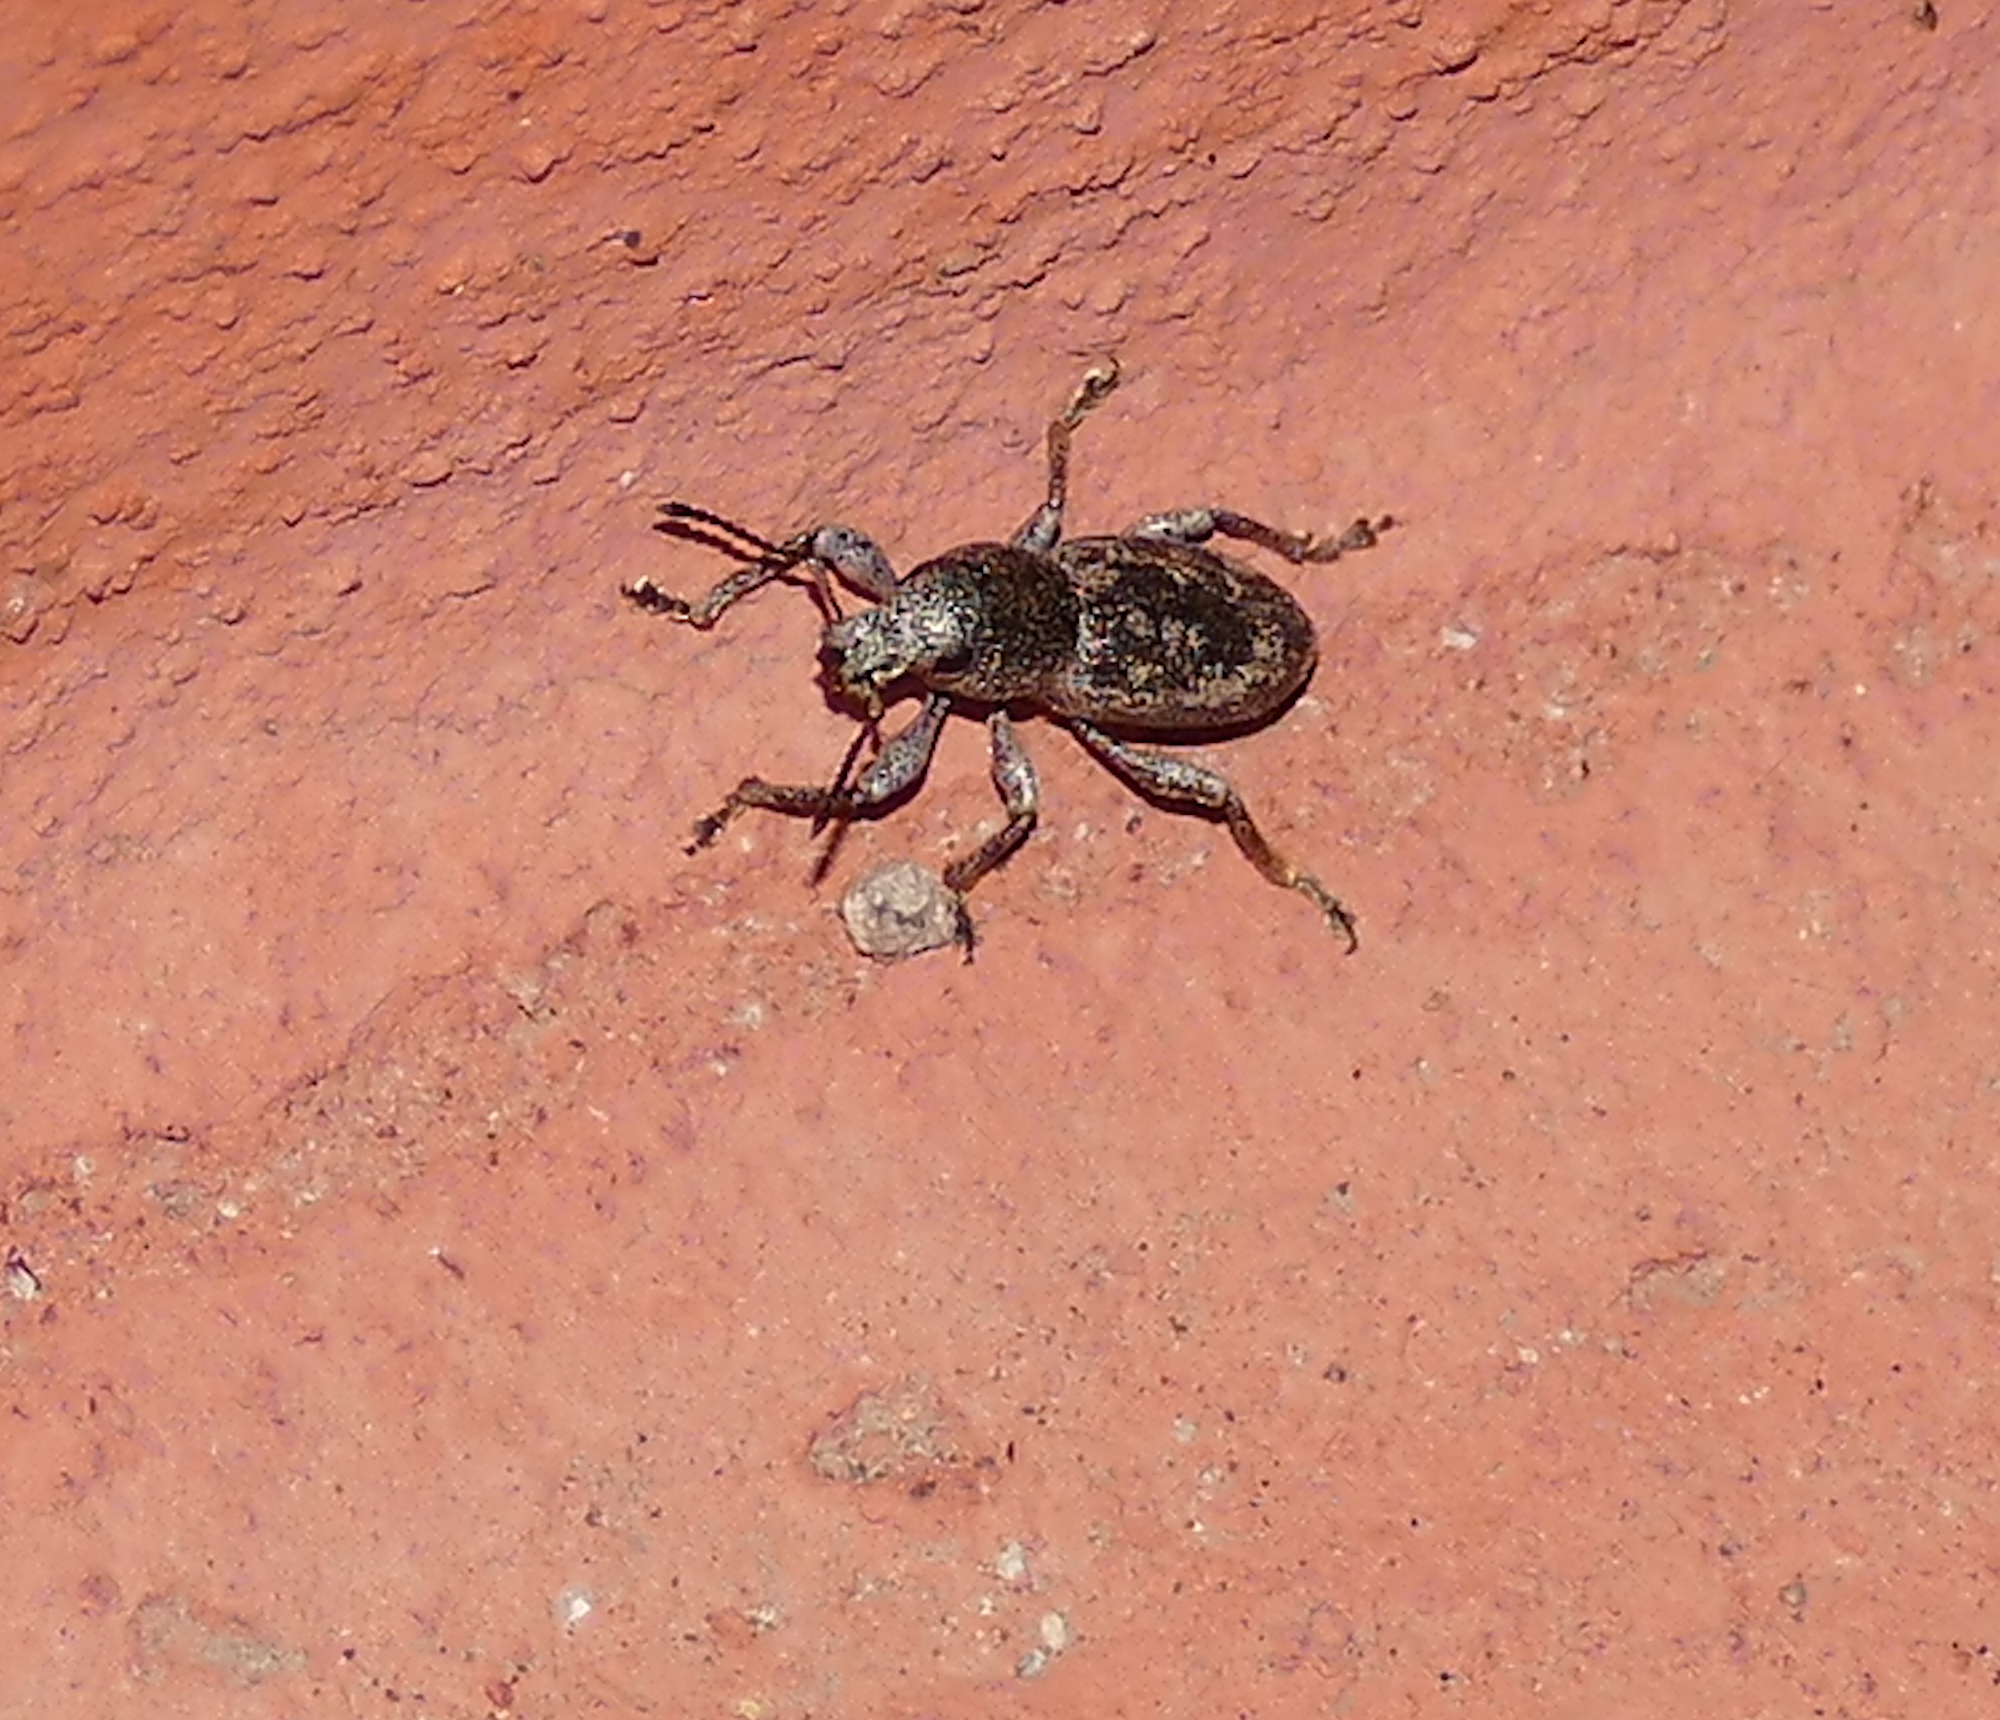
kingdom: Animalia
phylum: Arthropoda
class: Insecta
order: Coleoptera
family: Curculionidae
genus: Orimodema
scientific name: Orimodema protracta
